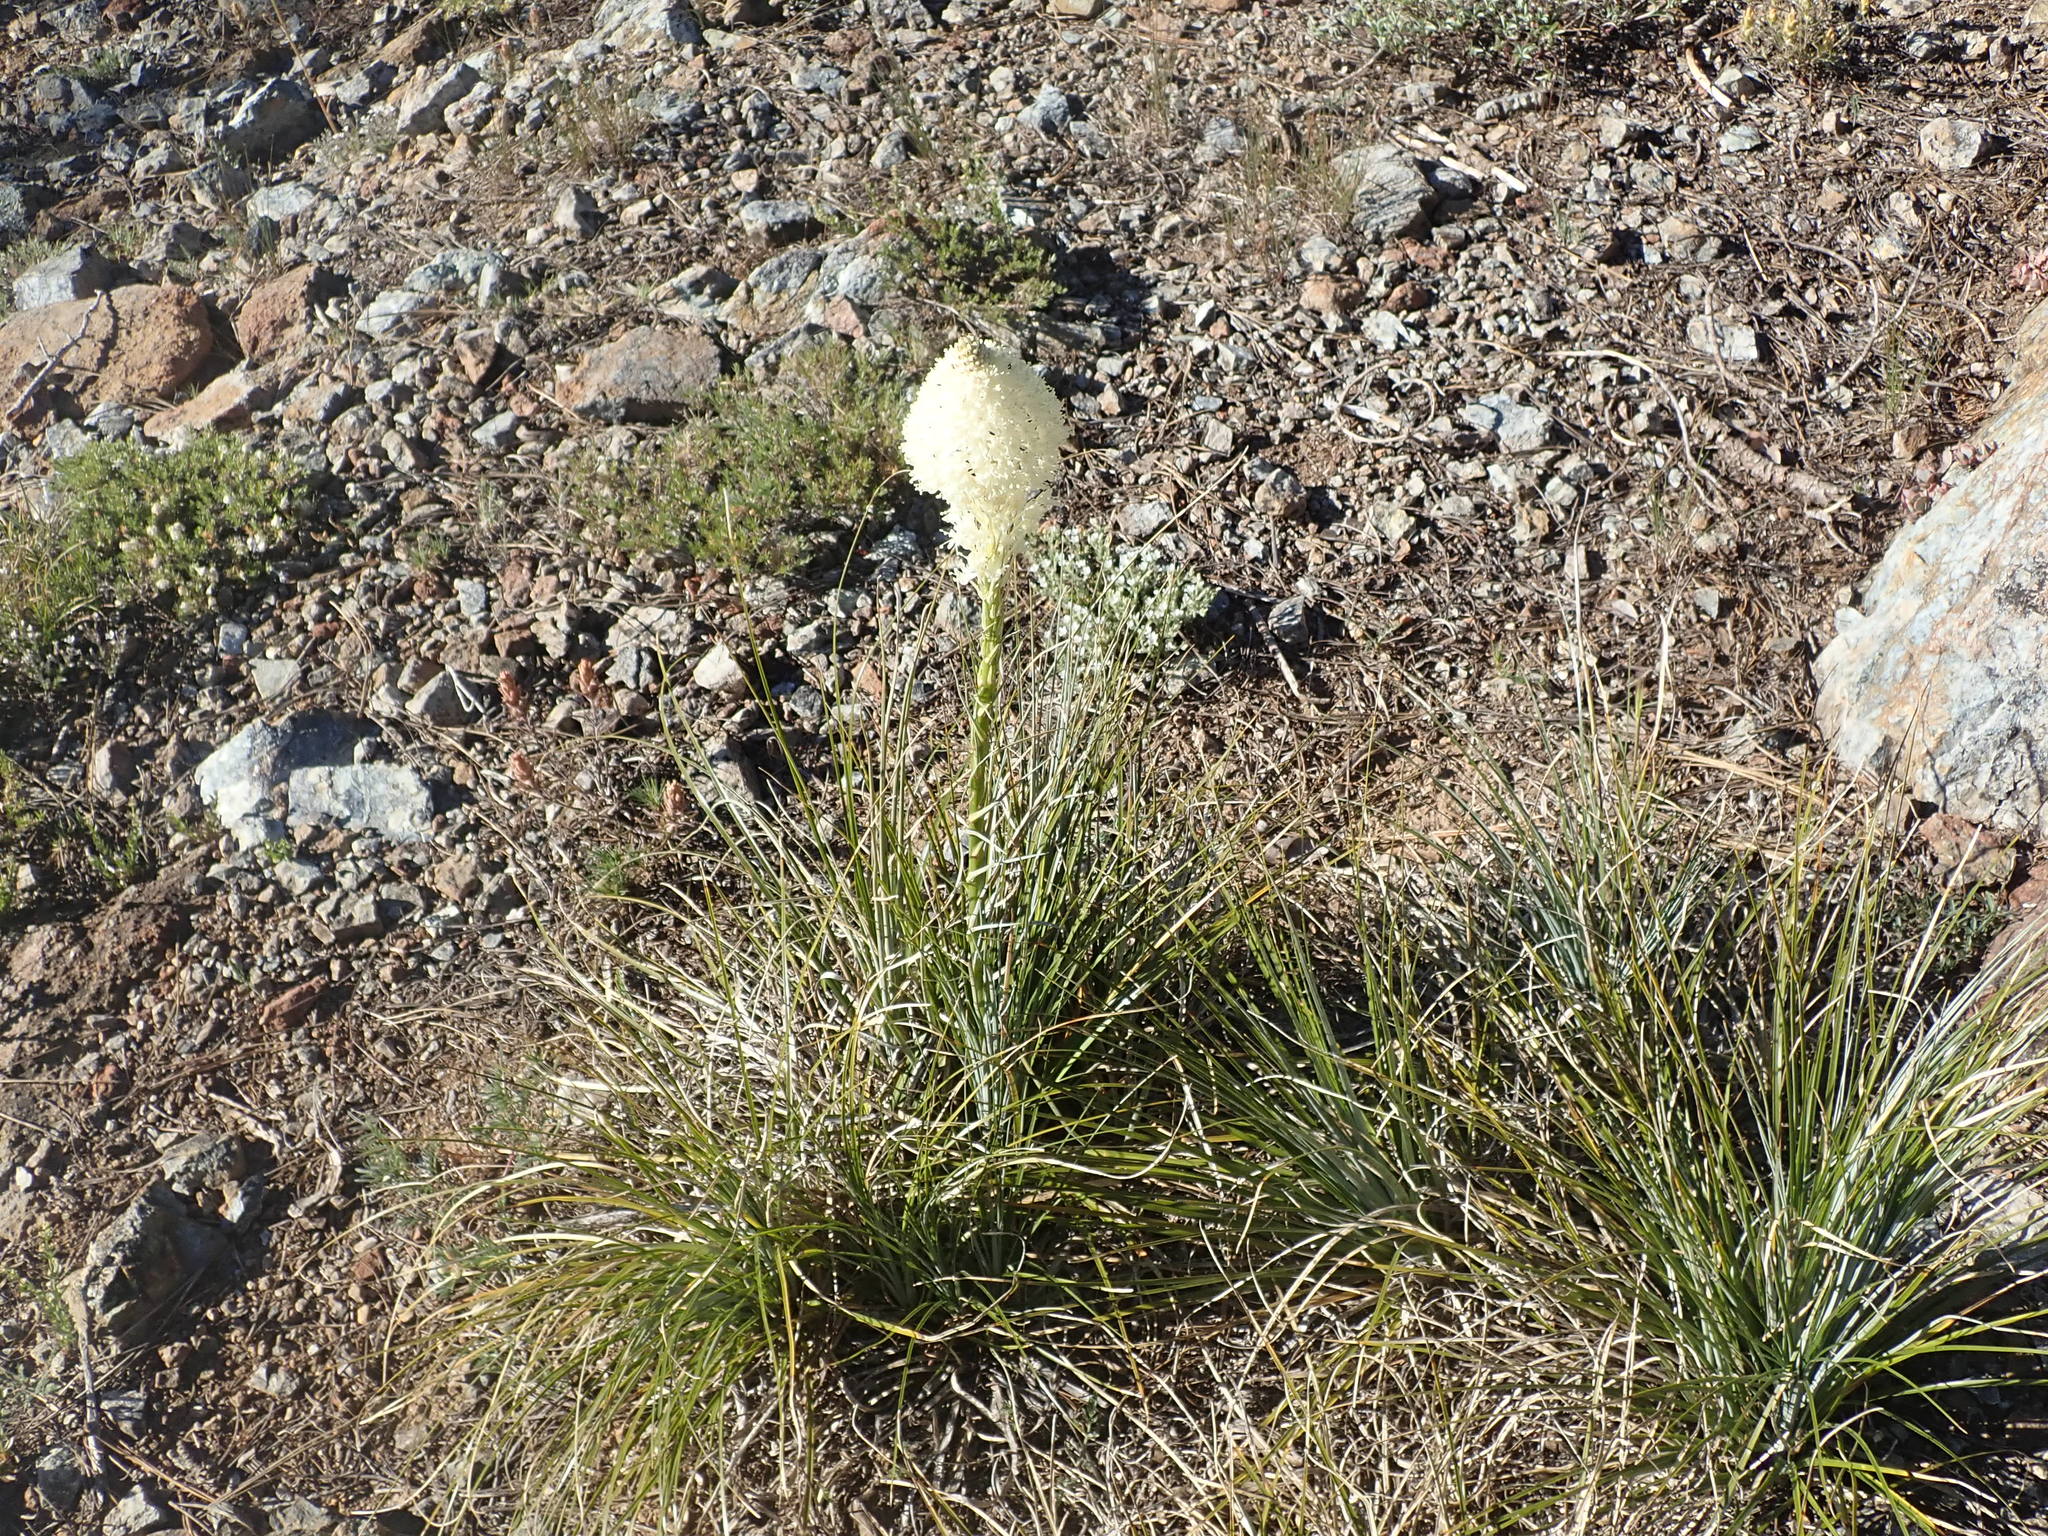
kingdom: Plantae
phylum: Tracheophyta
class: Liliopsida
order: Liliales
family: Melanthiaceae
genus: Xerophyllum
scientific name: Xerophyllum tenax
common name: Bear-grass
